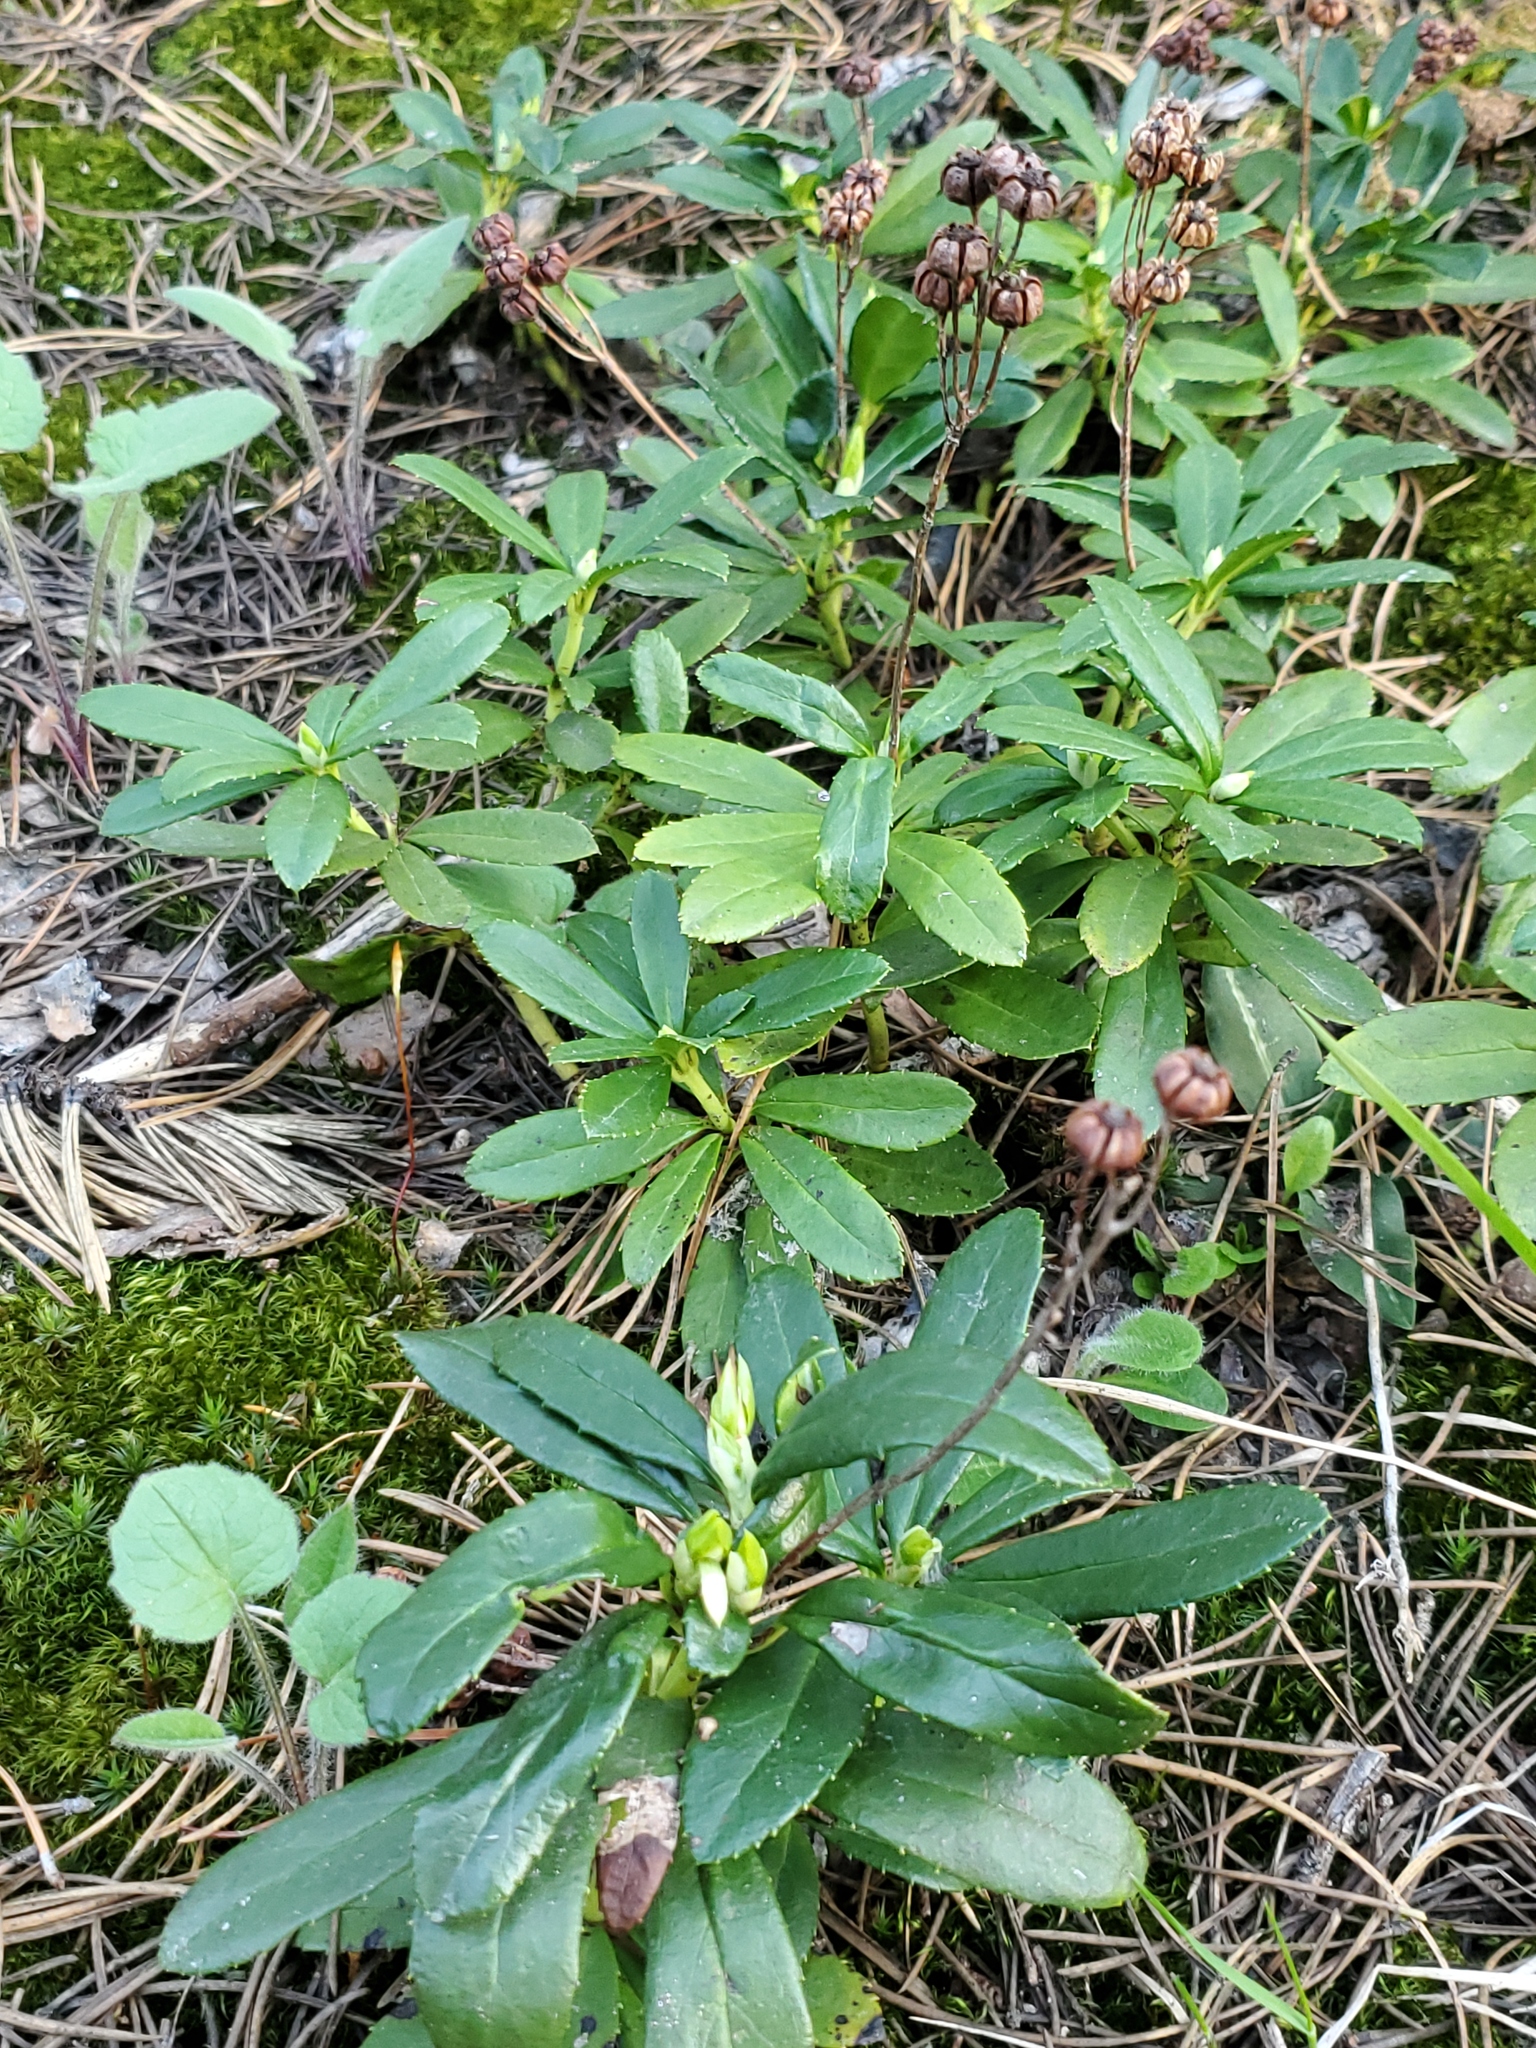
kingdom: Plantae
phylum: Tracheophyta
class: Magnoliopsida
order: Ericales
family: Ericaceae
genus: Chimaphila
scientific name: Chimaphila umbellata
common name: Pipsissewa
